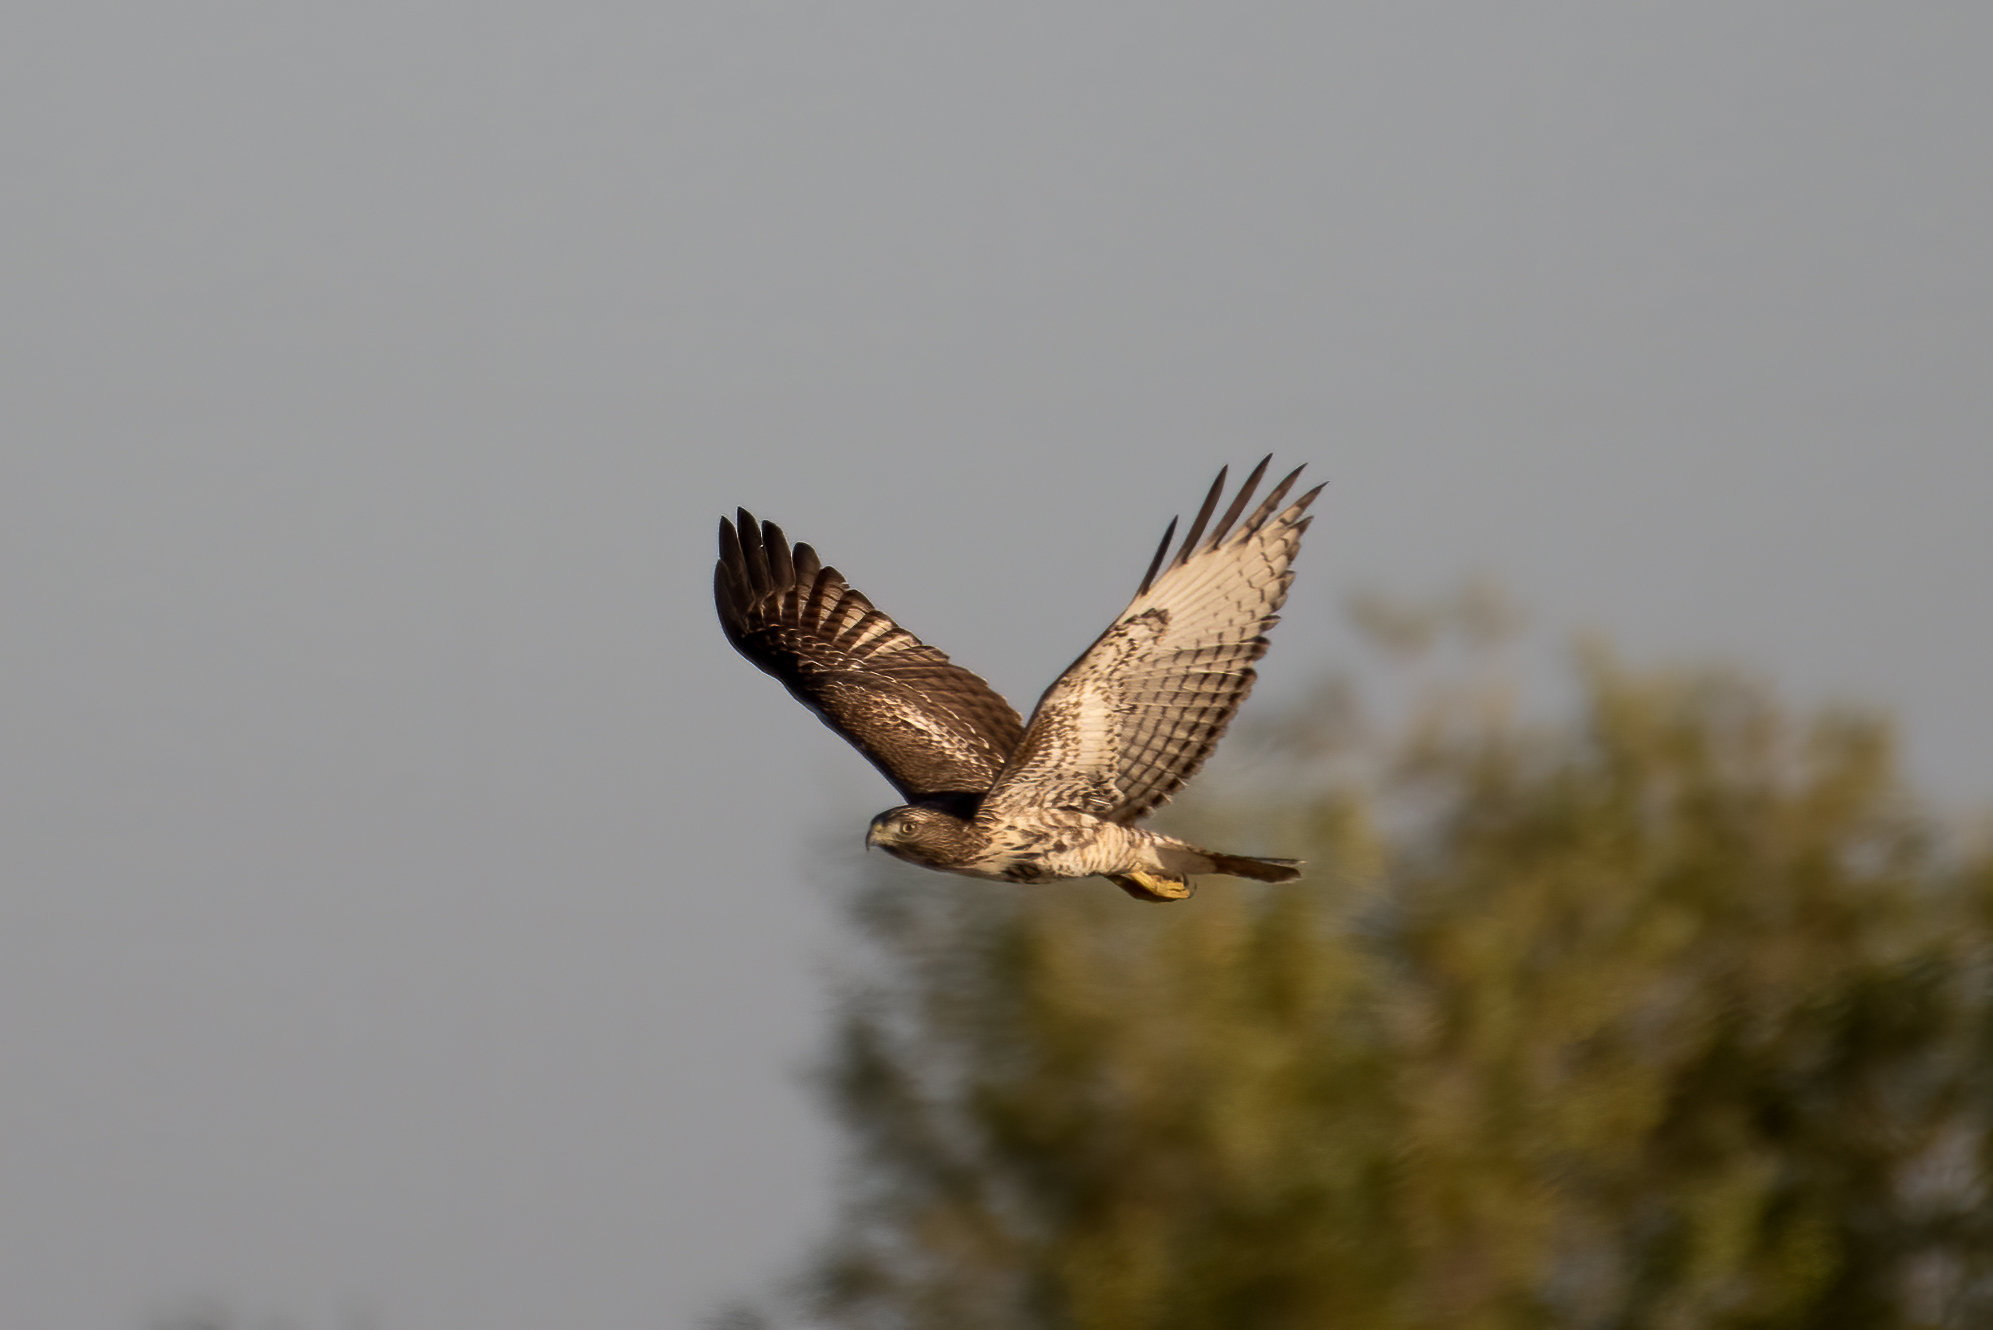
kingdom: Animalia
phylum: Chordata
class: Aves
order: Accipitriformes
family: Accipitridae
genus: Buteo
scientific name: Buteo jamaicensis
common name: Red-tailed hawk
